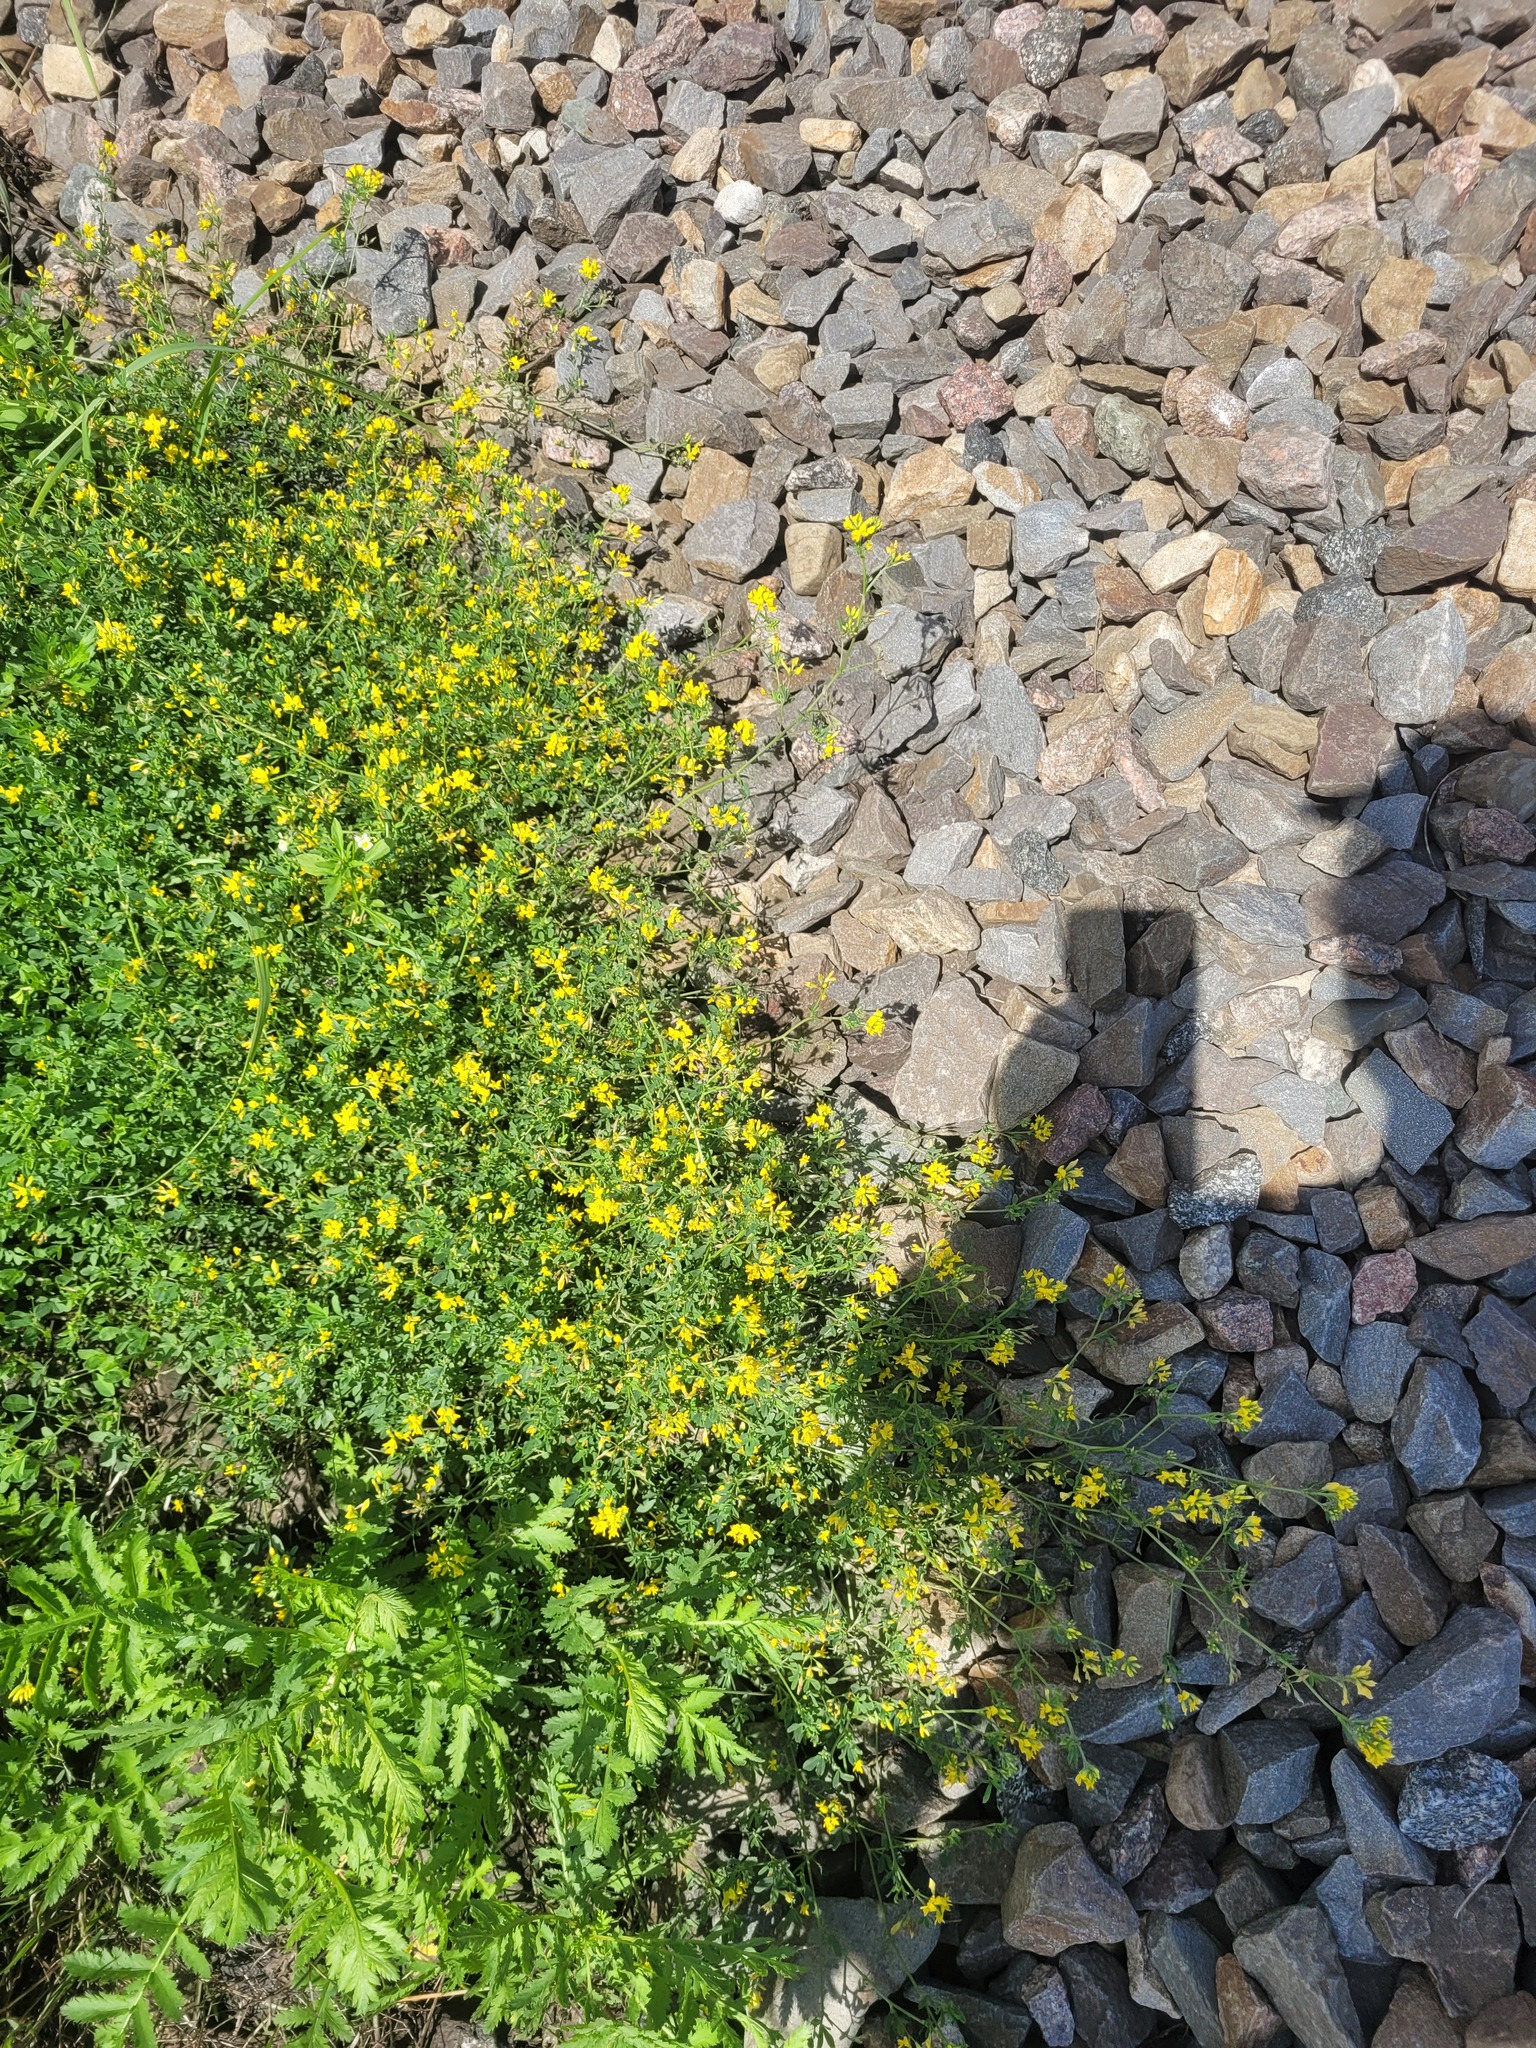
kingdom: Plantae
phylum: Tracheophyta
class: Magnoliopsida
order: Fabales
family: Fabaceae
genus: Medicago
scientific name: Medicago falcata
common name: Sickle medick
